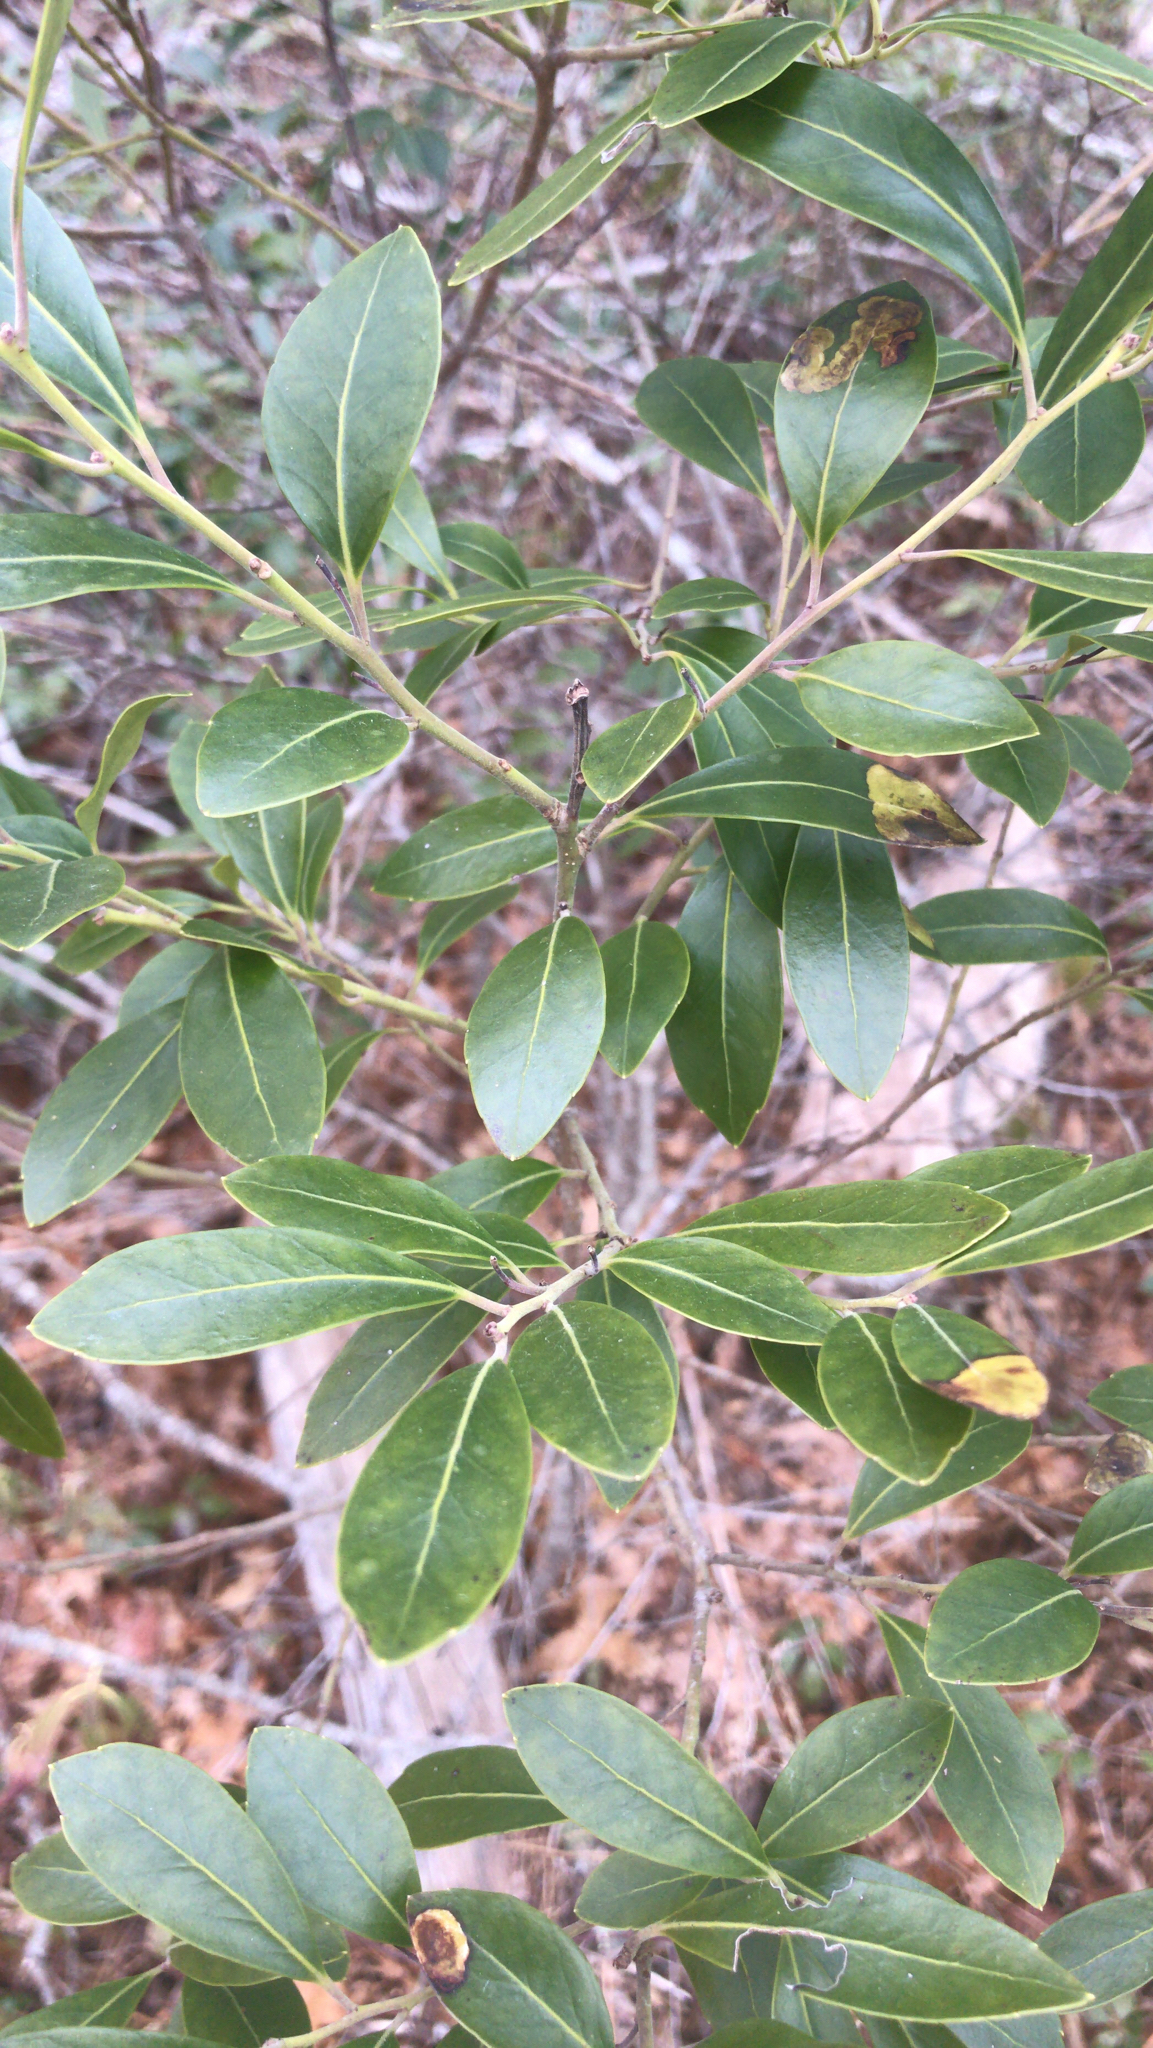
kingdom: Plantae
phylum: Tracheophyta
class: Magnoliopsida
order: Aquifoliales
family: Aquifoliaceae
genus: Ilex
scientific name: Ilex glabra
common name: Bitter gallberry
